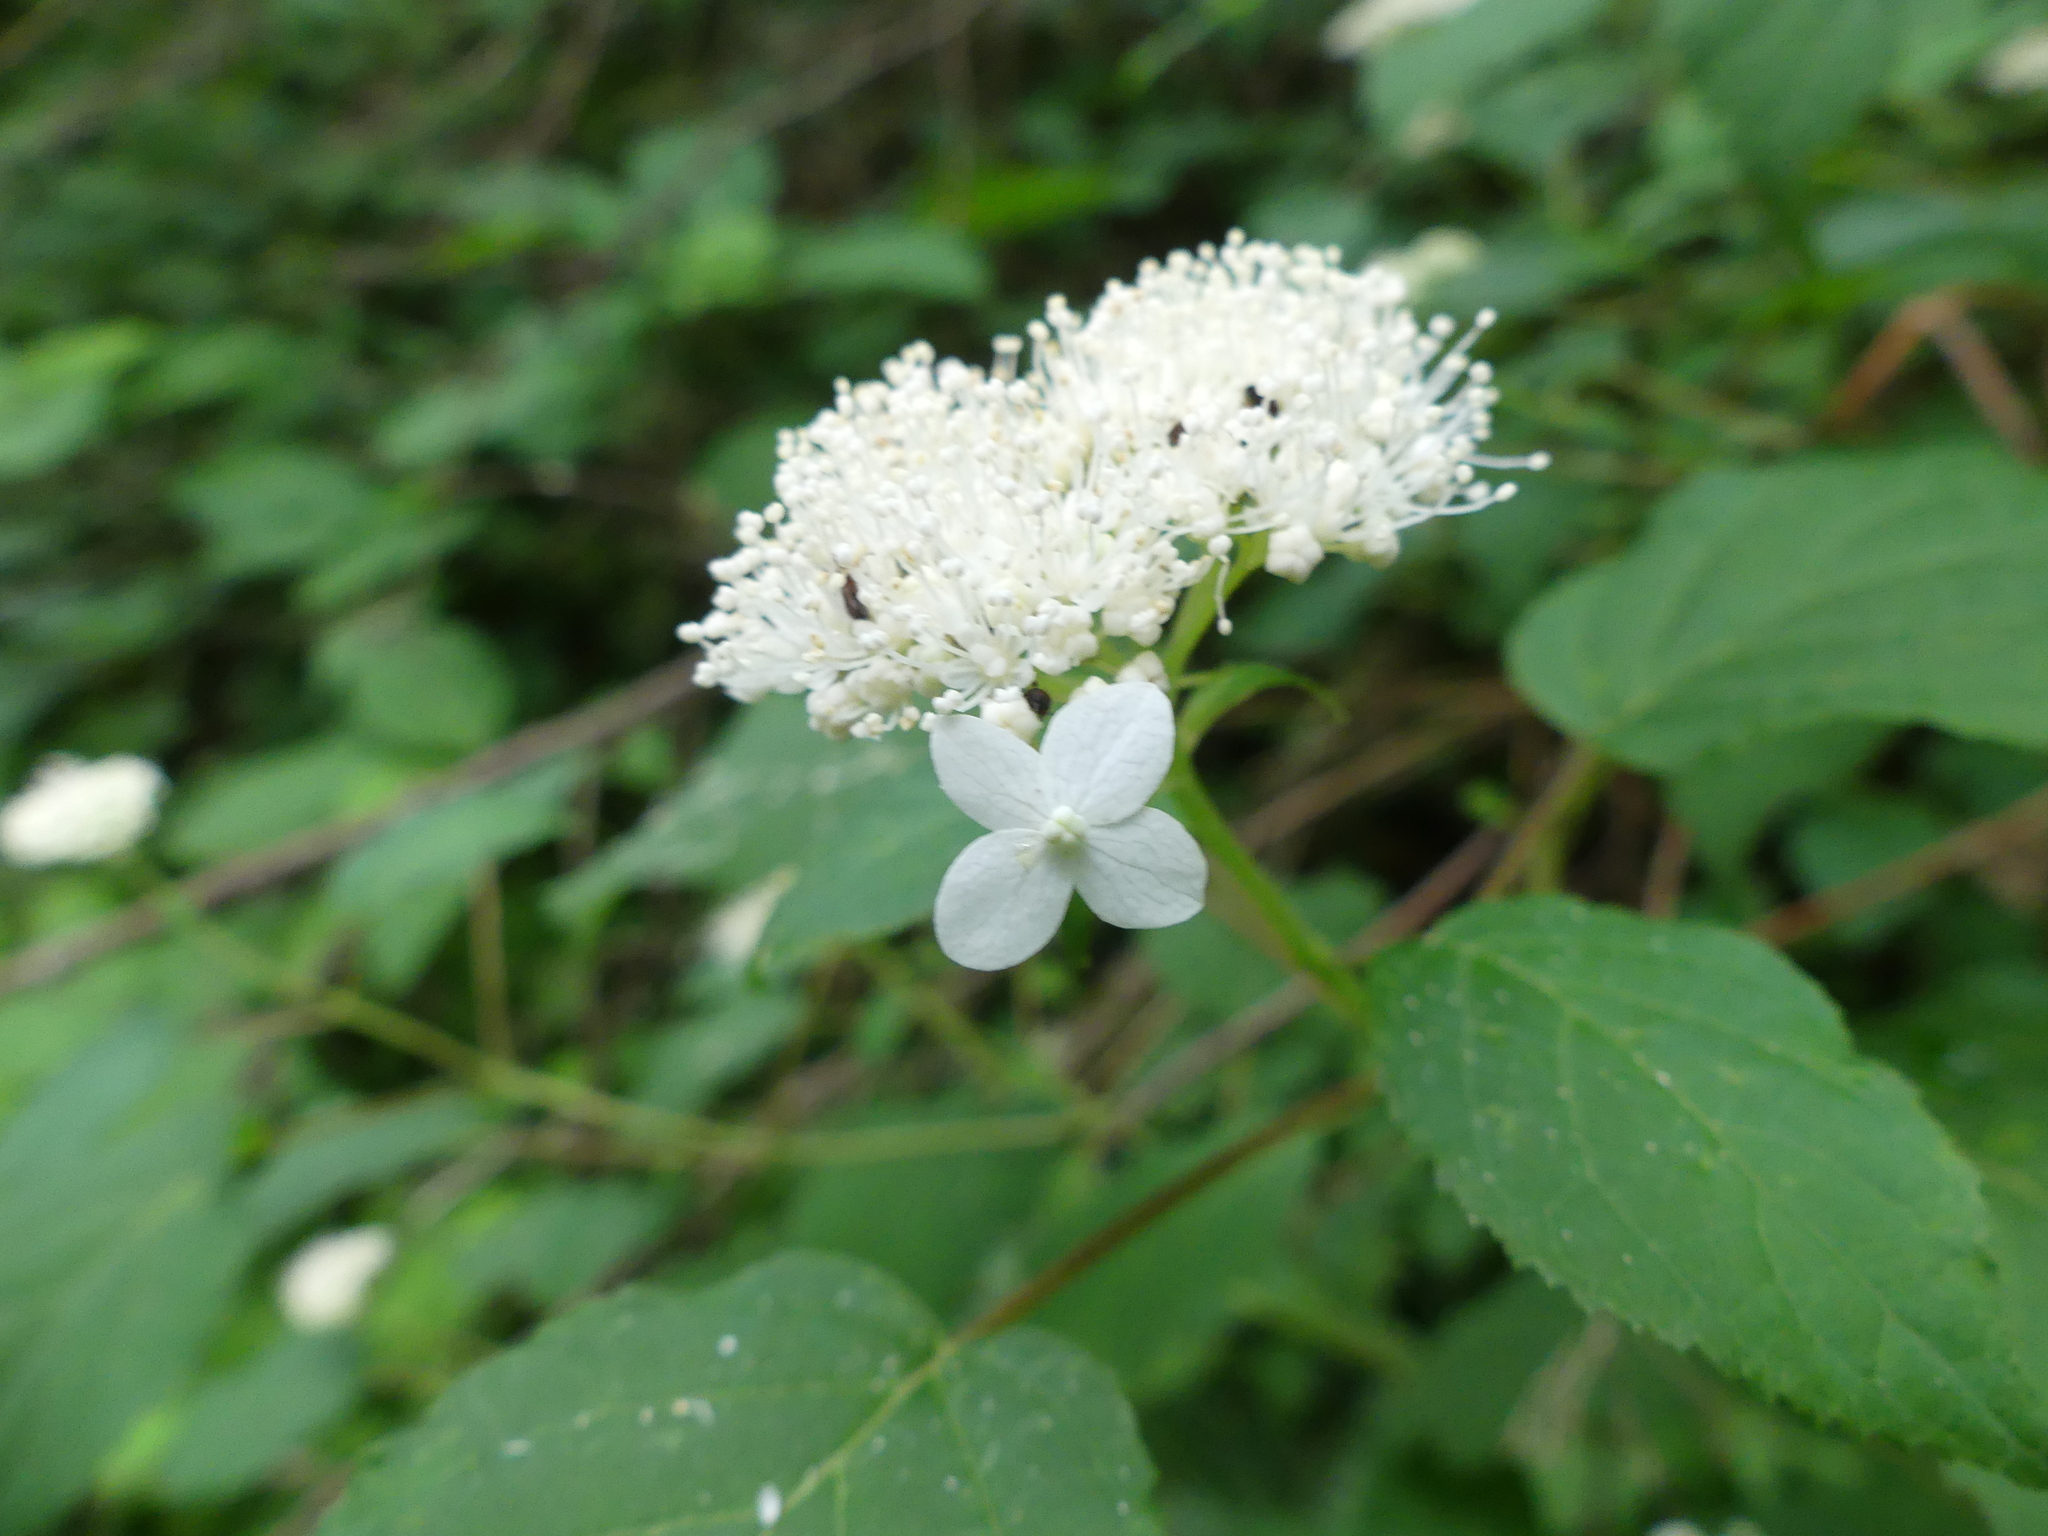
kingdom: Plantae
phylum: Tracheophyta
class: Magnoliopsida
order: Cornales
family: Hydrangeaceae
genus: Hydrangea
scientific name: Hydrangea arborescens
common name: Sevenbark
